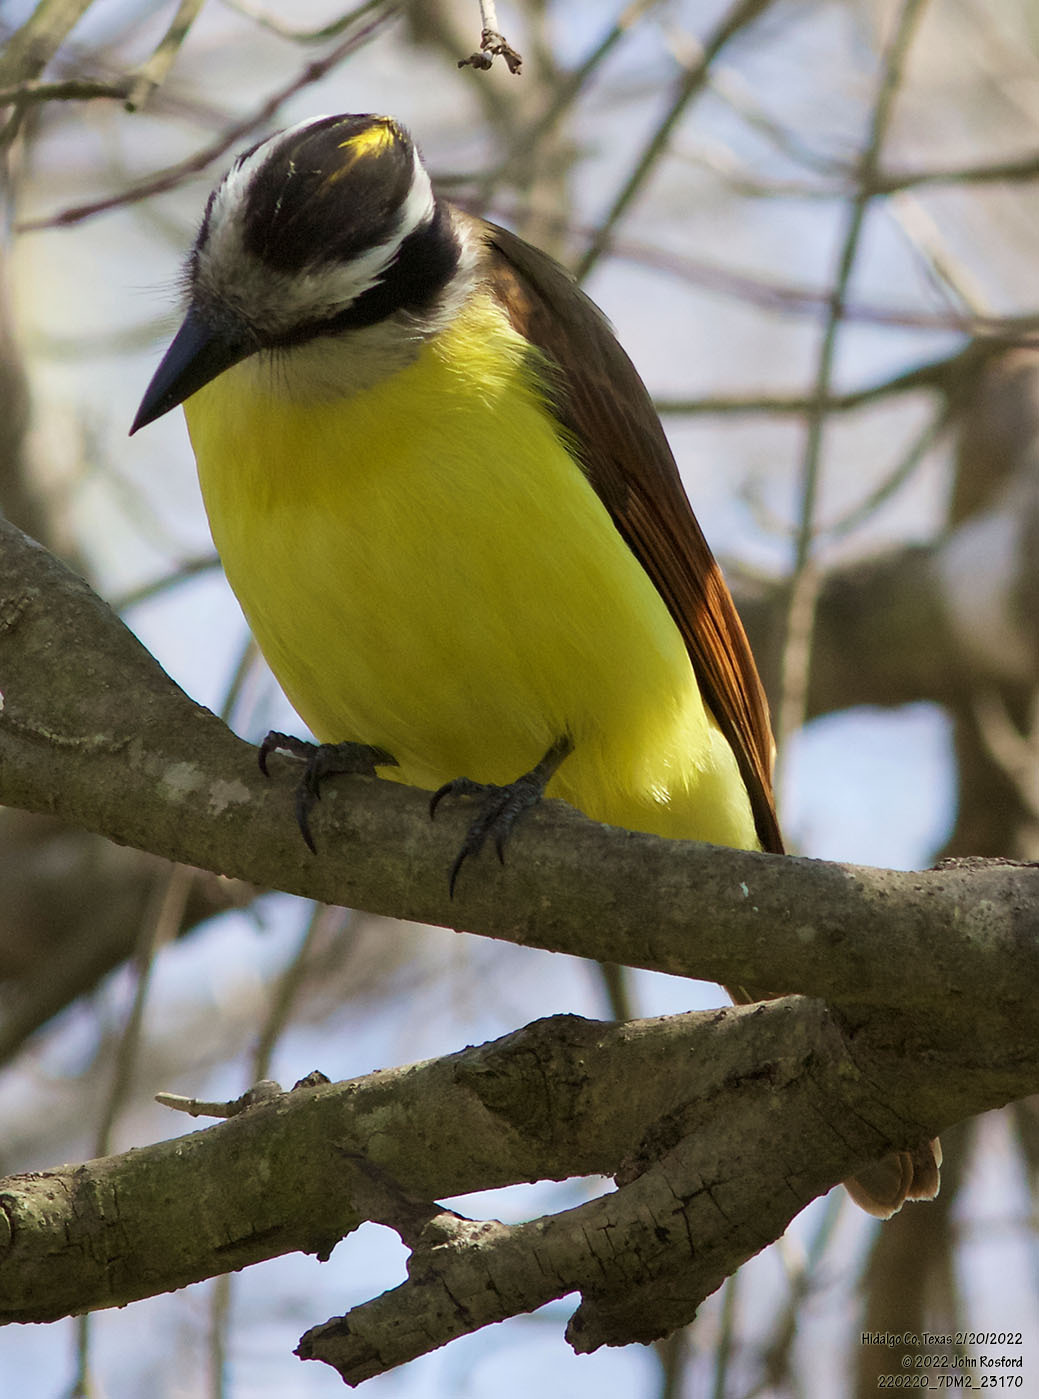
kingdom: Animalia
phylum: Chordata
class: Aves
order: Passeriformes
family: Tyrannidae
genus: Pitangus
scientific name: Pitangus sulphuratus
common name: Great kiskadee
